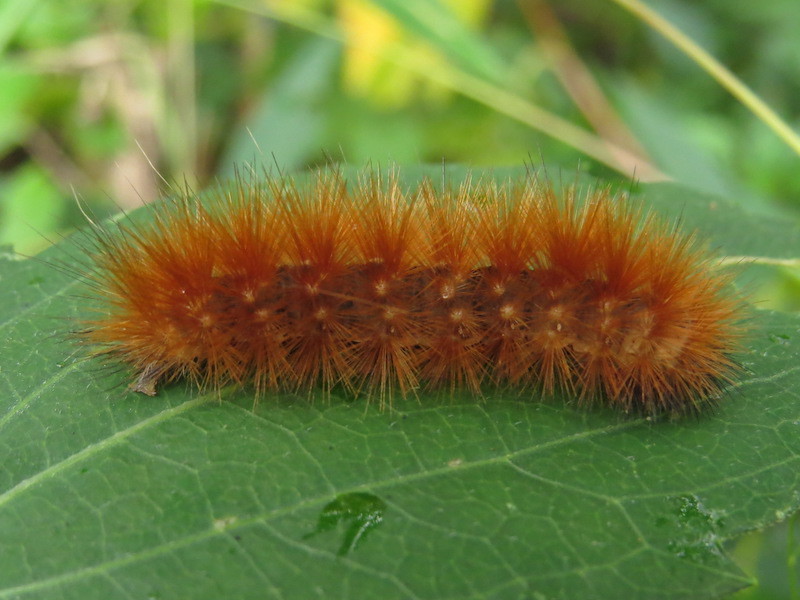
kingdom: Animalia
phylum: Arthropoda
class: Insecta
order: Lepidoptera
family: Erebidae
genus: Spilosoma
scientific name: Spilosoma virginica
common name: Virginia tiger moth
